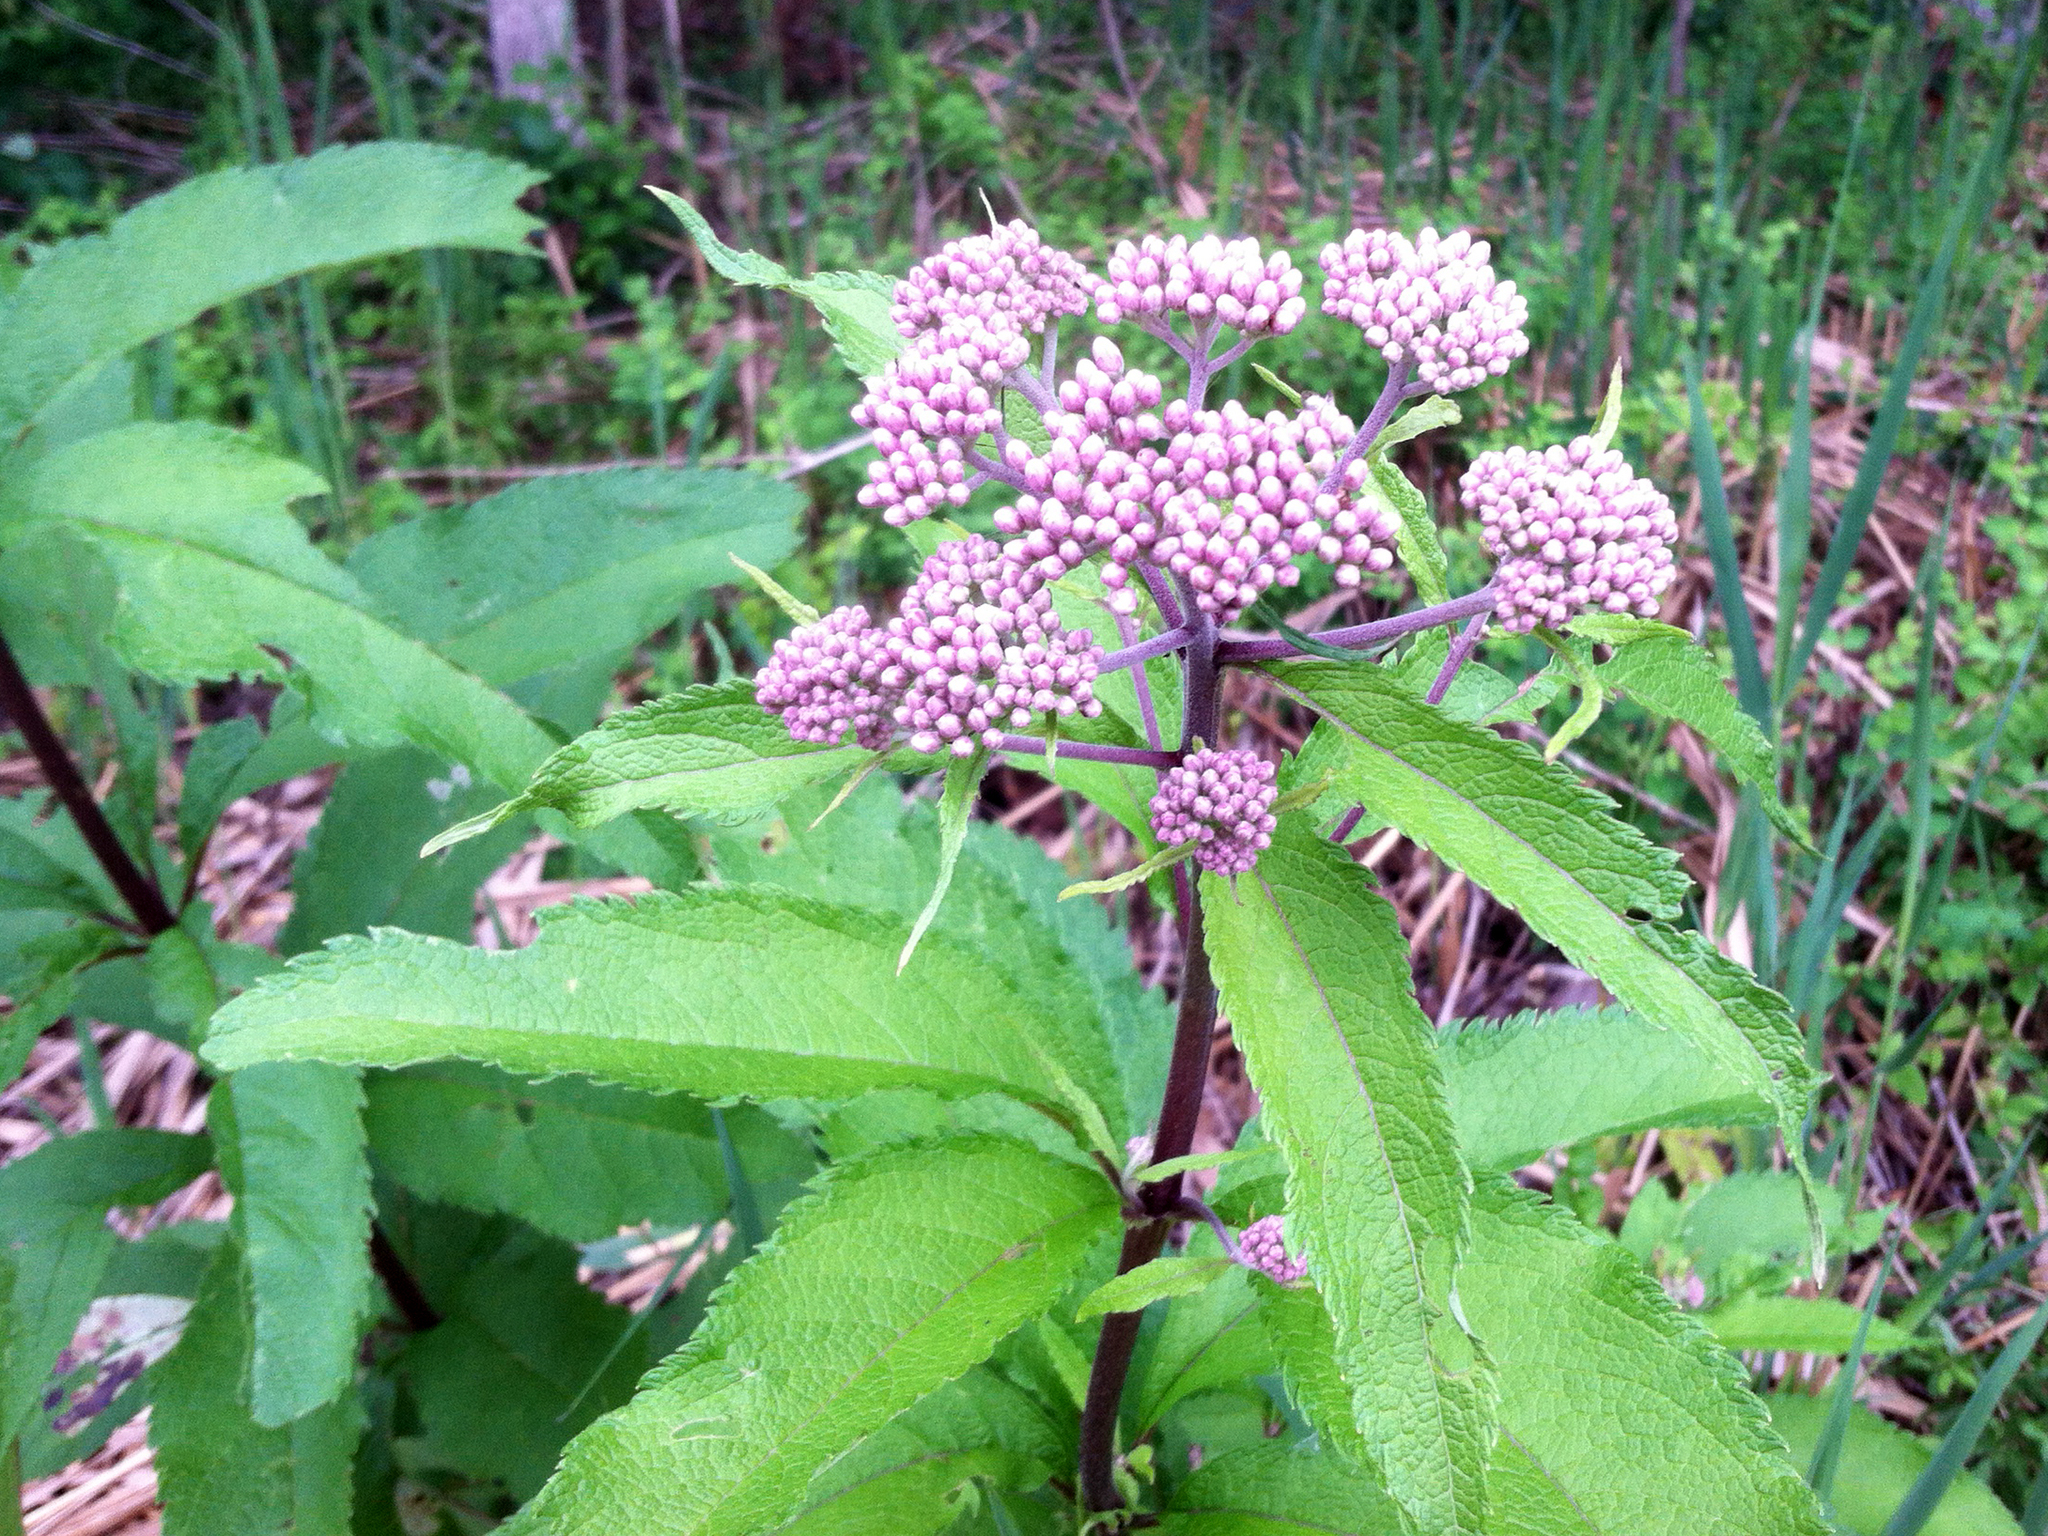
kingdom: Plantae
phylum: Tracheophyta
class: Magnoliopsida
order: Asterales
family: Asteraceae
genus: Eutrochium
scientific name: Eutrochium maculatum
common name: Spotted joe pye weed
